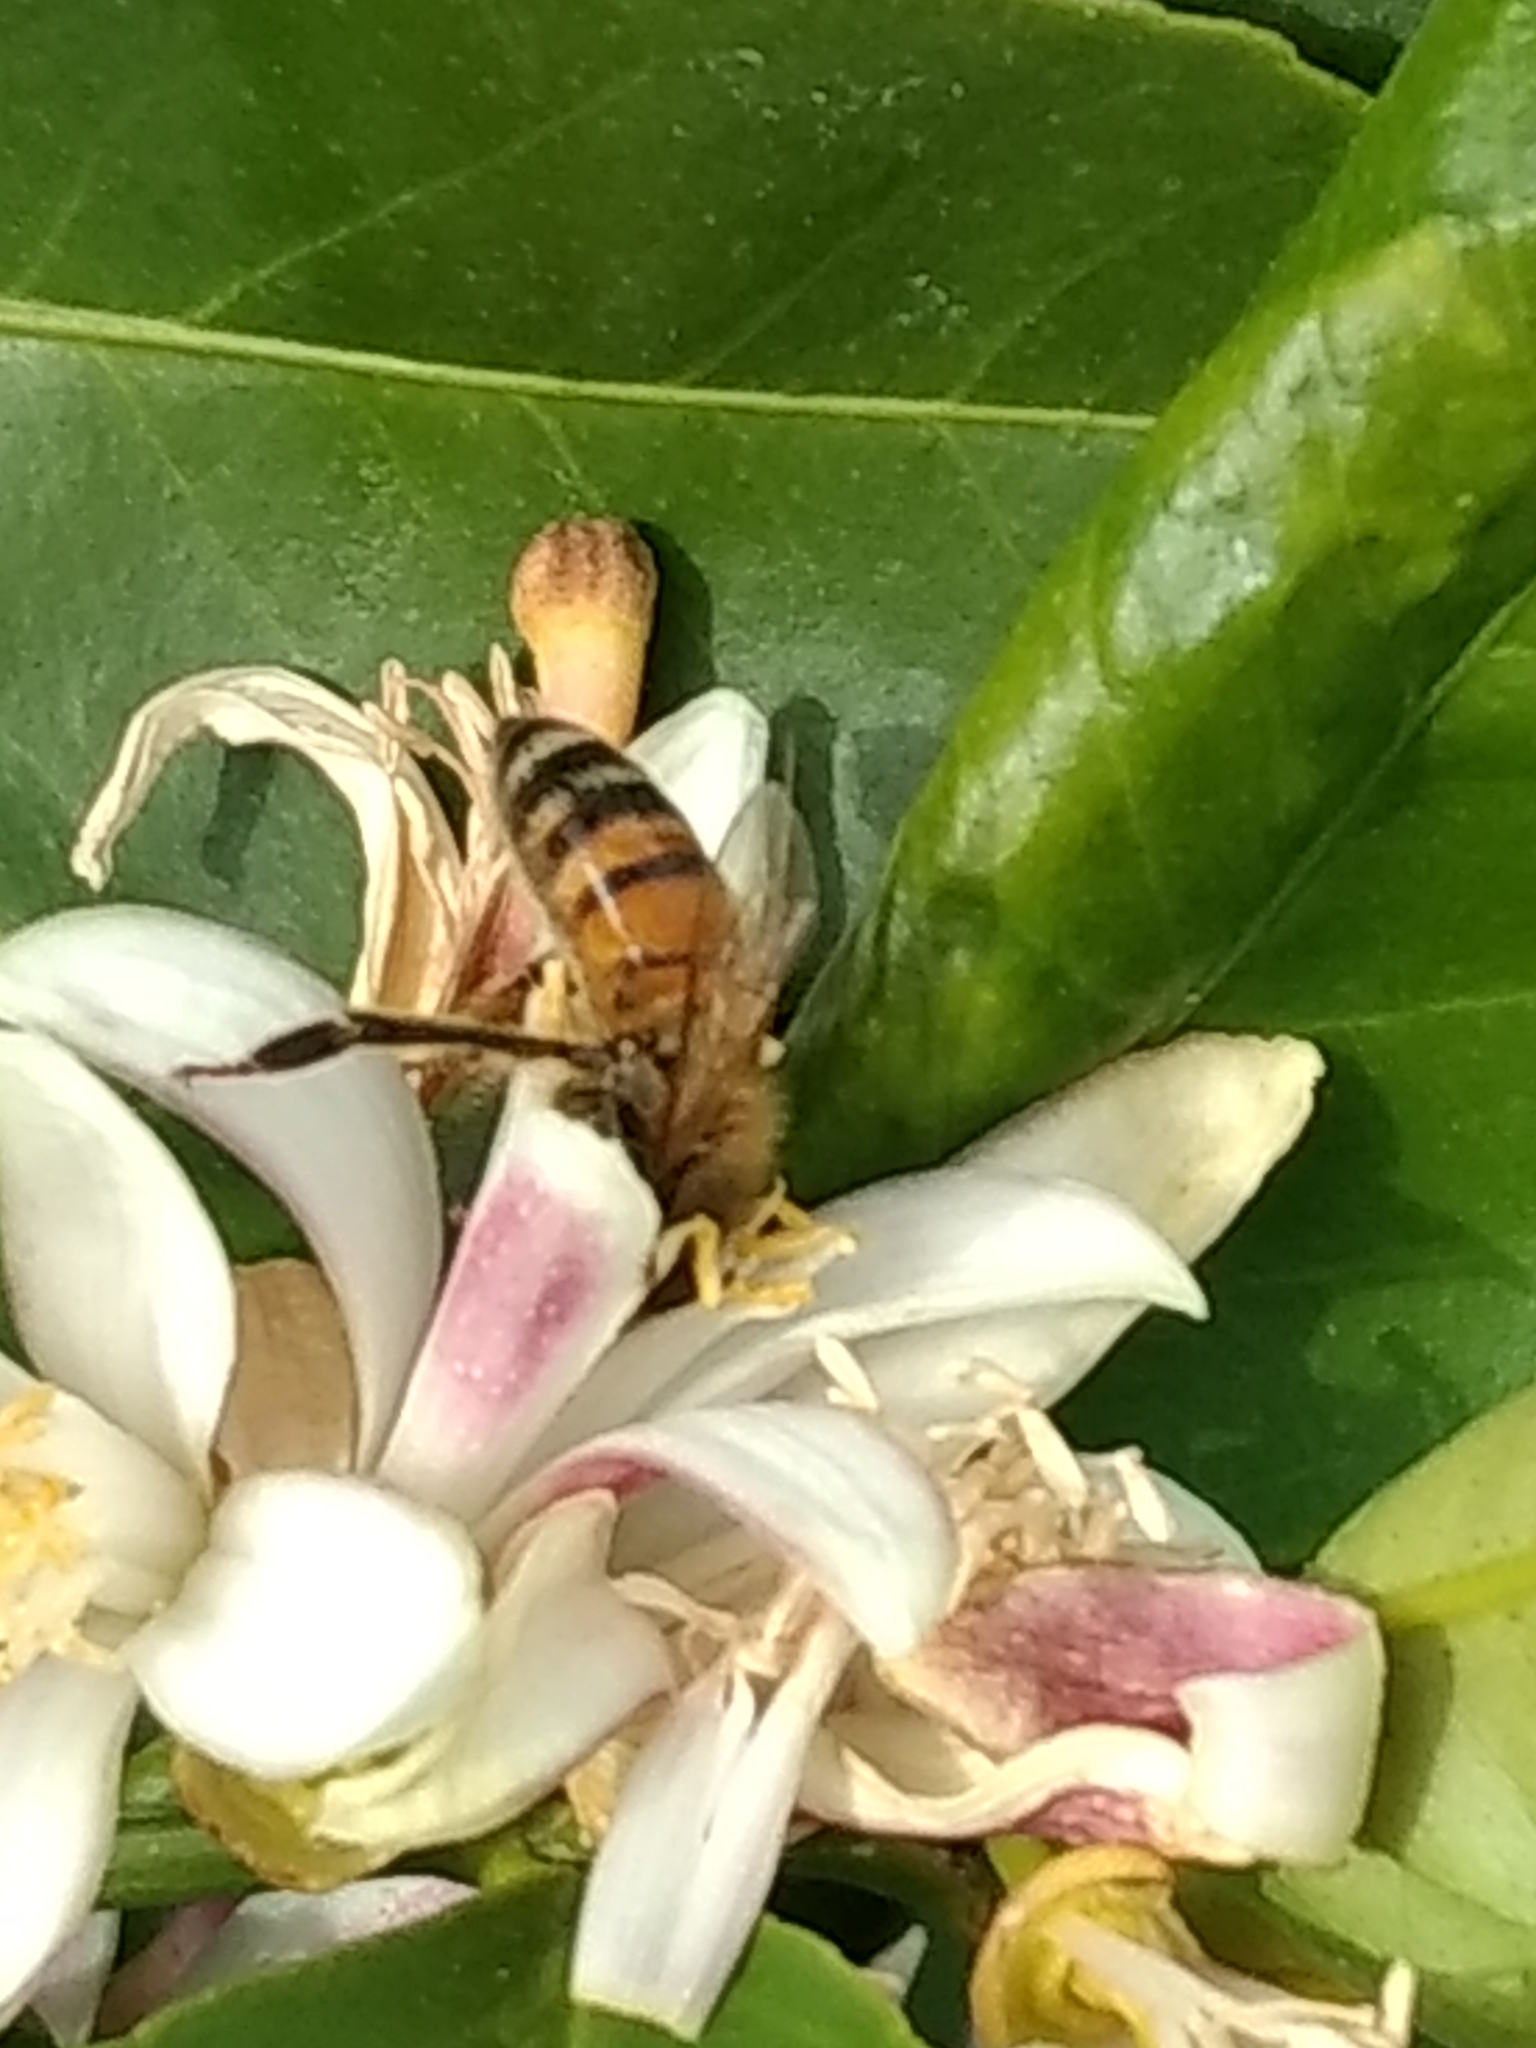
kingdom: Animalia
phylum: Arthropoda
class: Insecta
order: Hymenoptera
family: Apidae
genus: Apis
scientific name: Apis mellifera
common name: Honey bee
